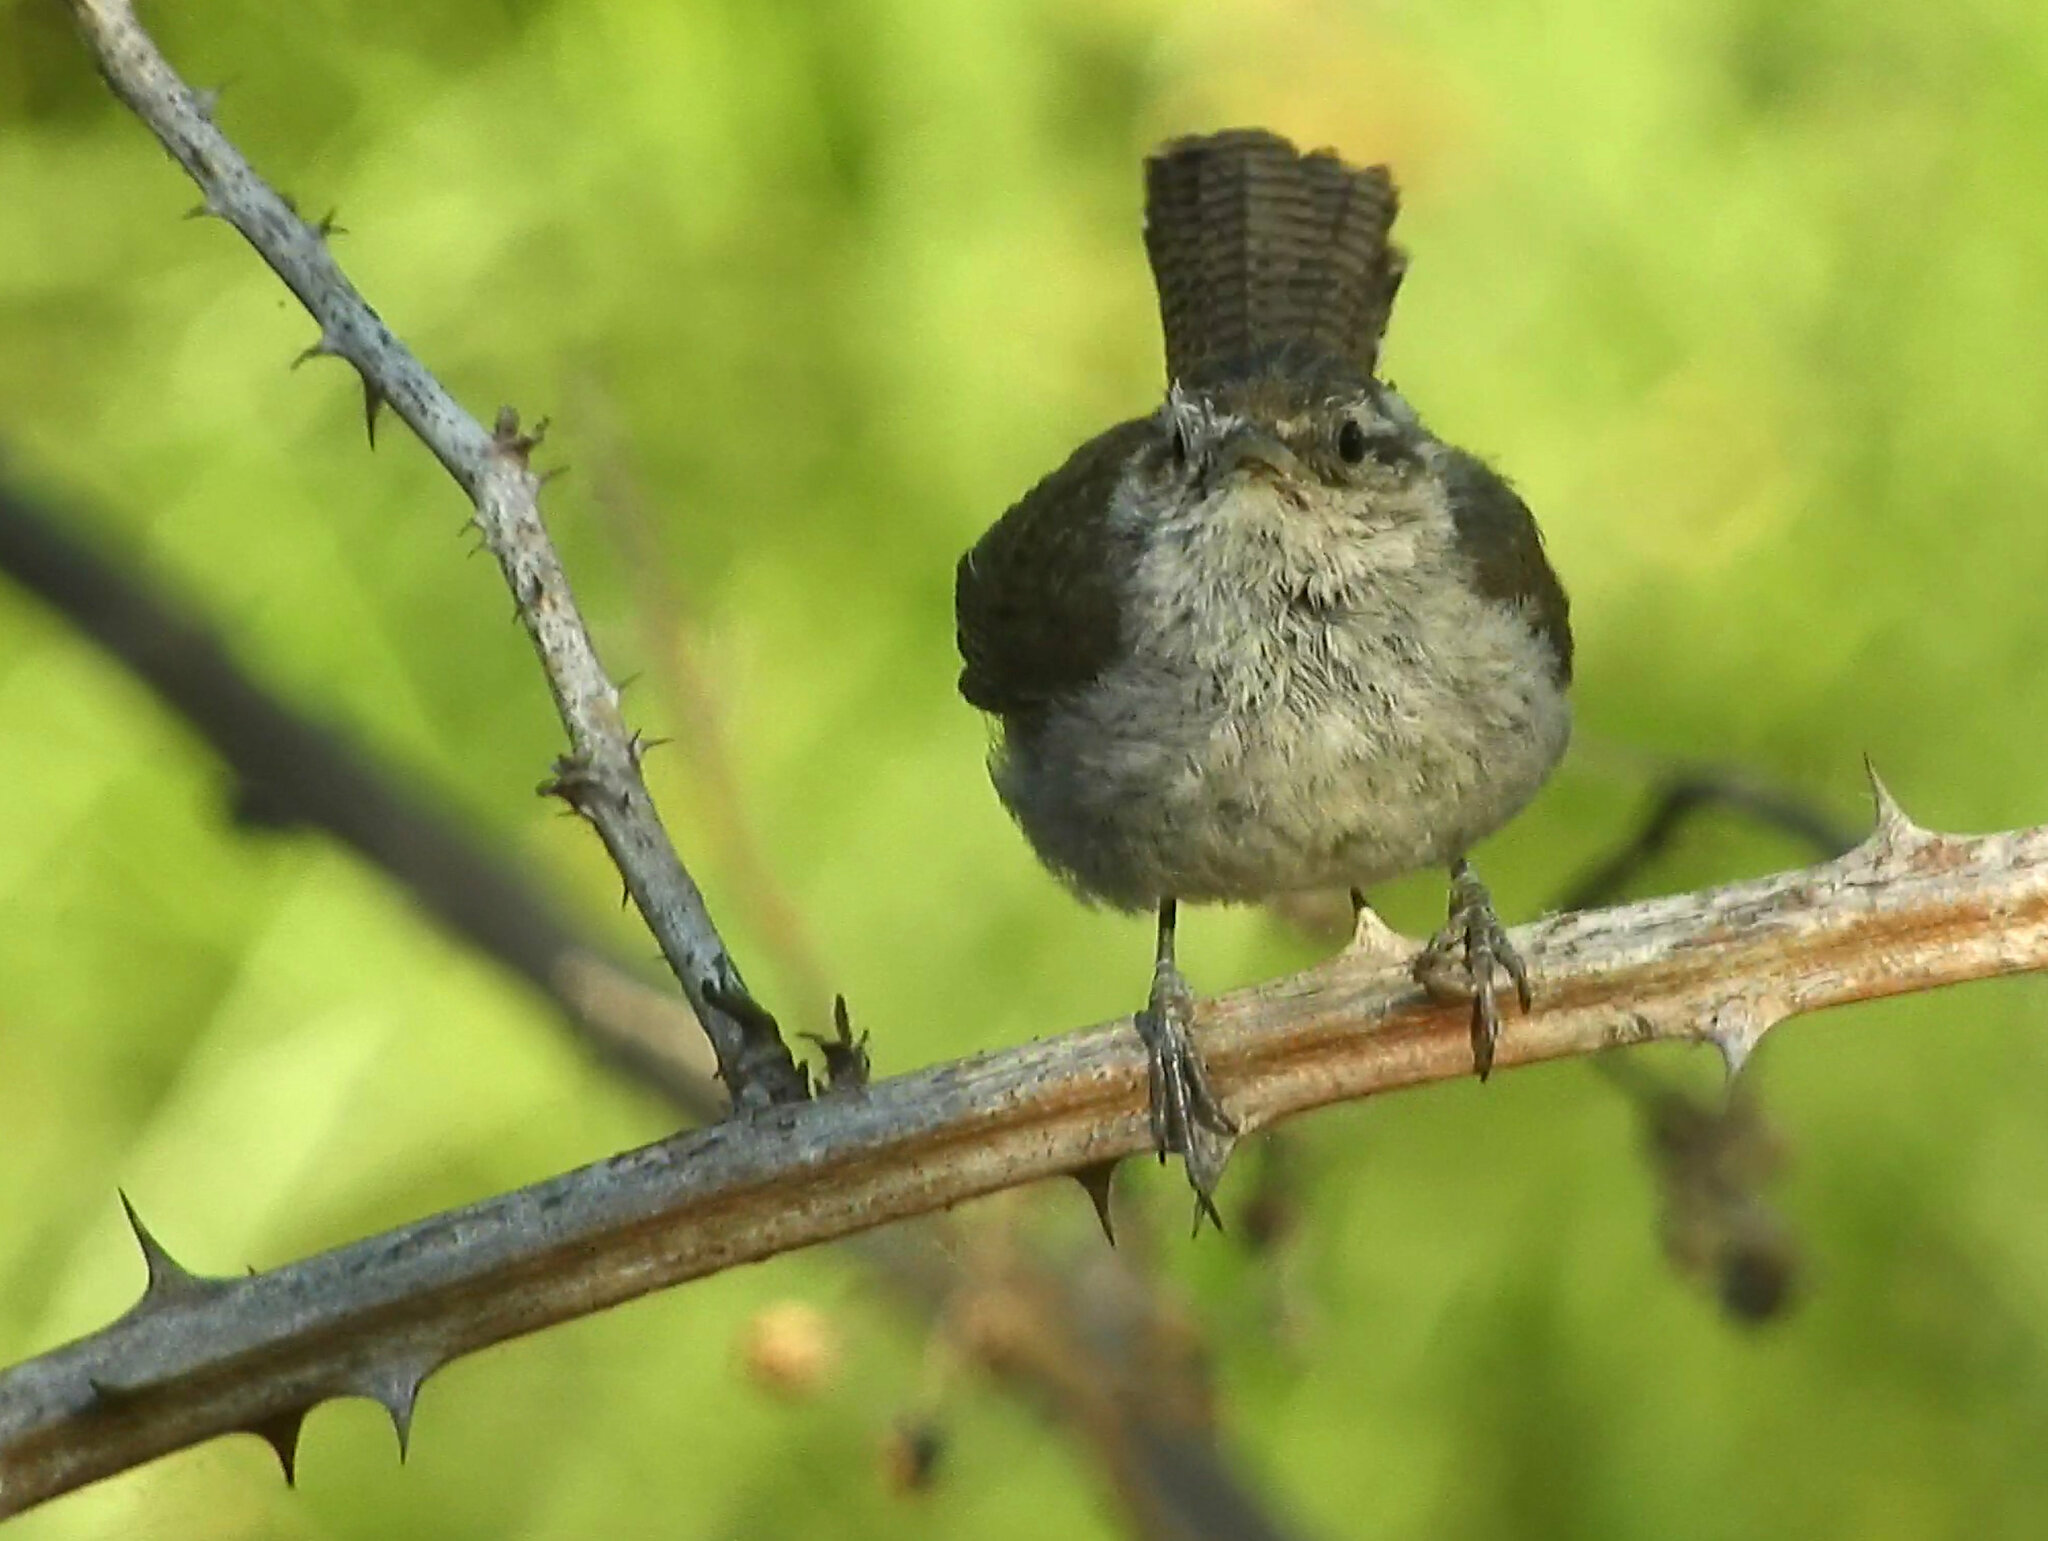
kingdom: Animalia
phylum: Chordata
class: Aves
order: Passeriformes
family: Troglodytidae
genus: Thryomanes
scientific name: Thryomanes bewickii
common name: Bewick's wren
